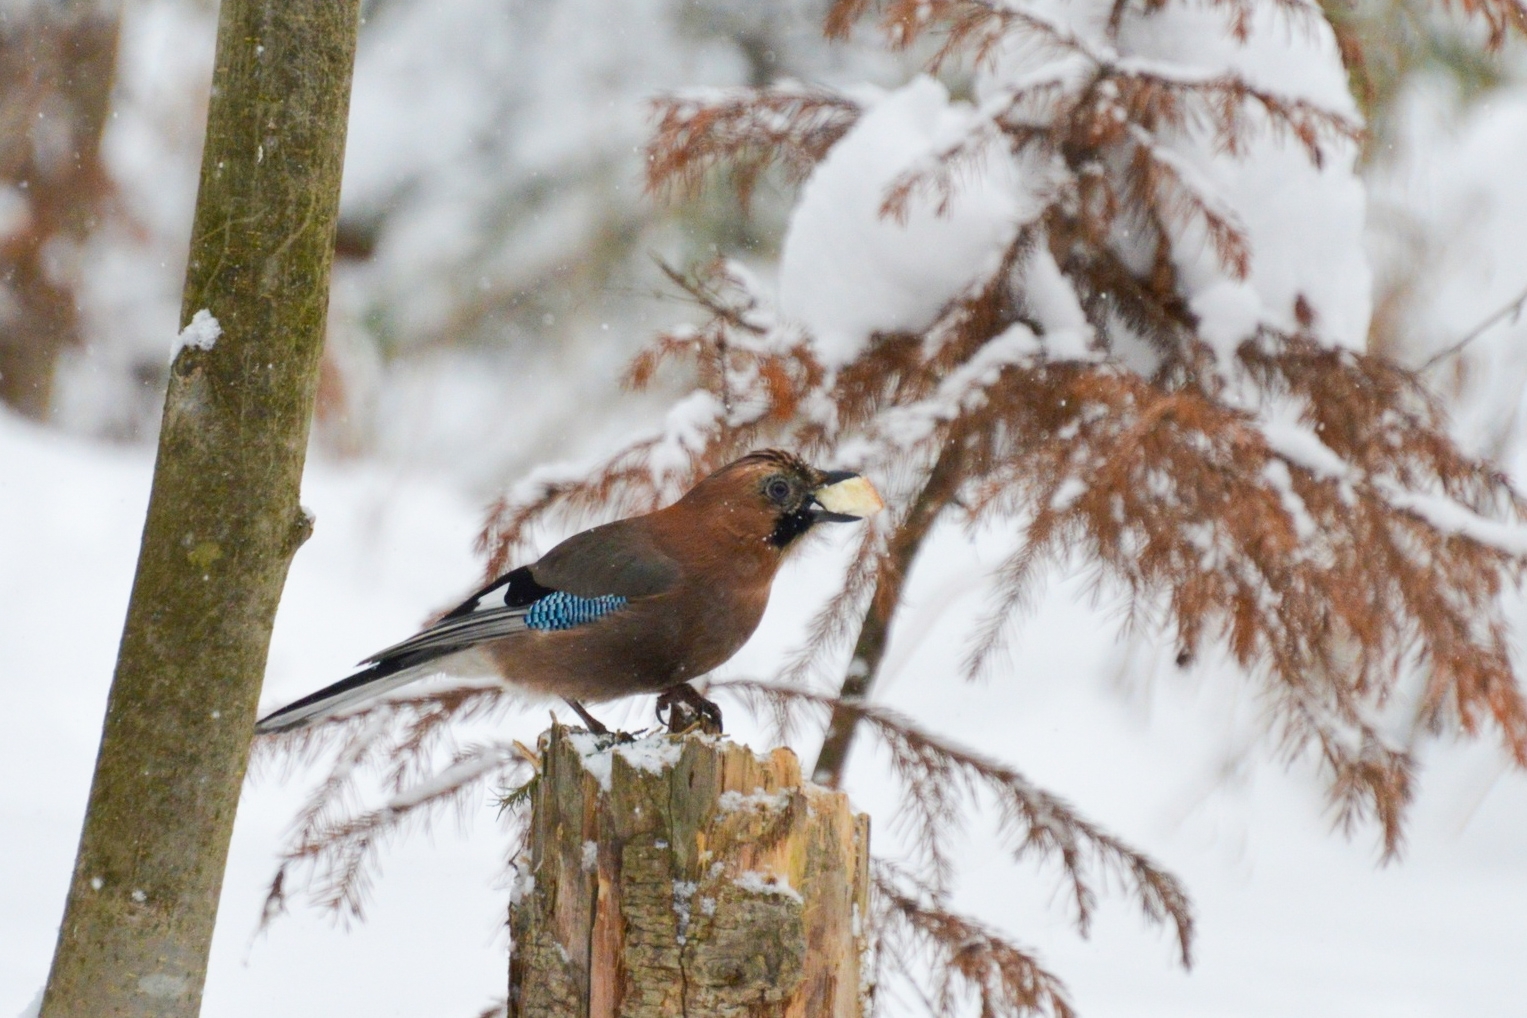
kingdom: Animalia
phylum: Chordata
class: Aves
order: Passeriformes
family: Corvidae
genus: Garrulus
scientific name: Garrulus glandarius
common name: Eurasian jay
